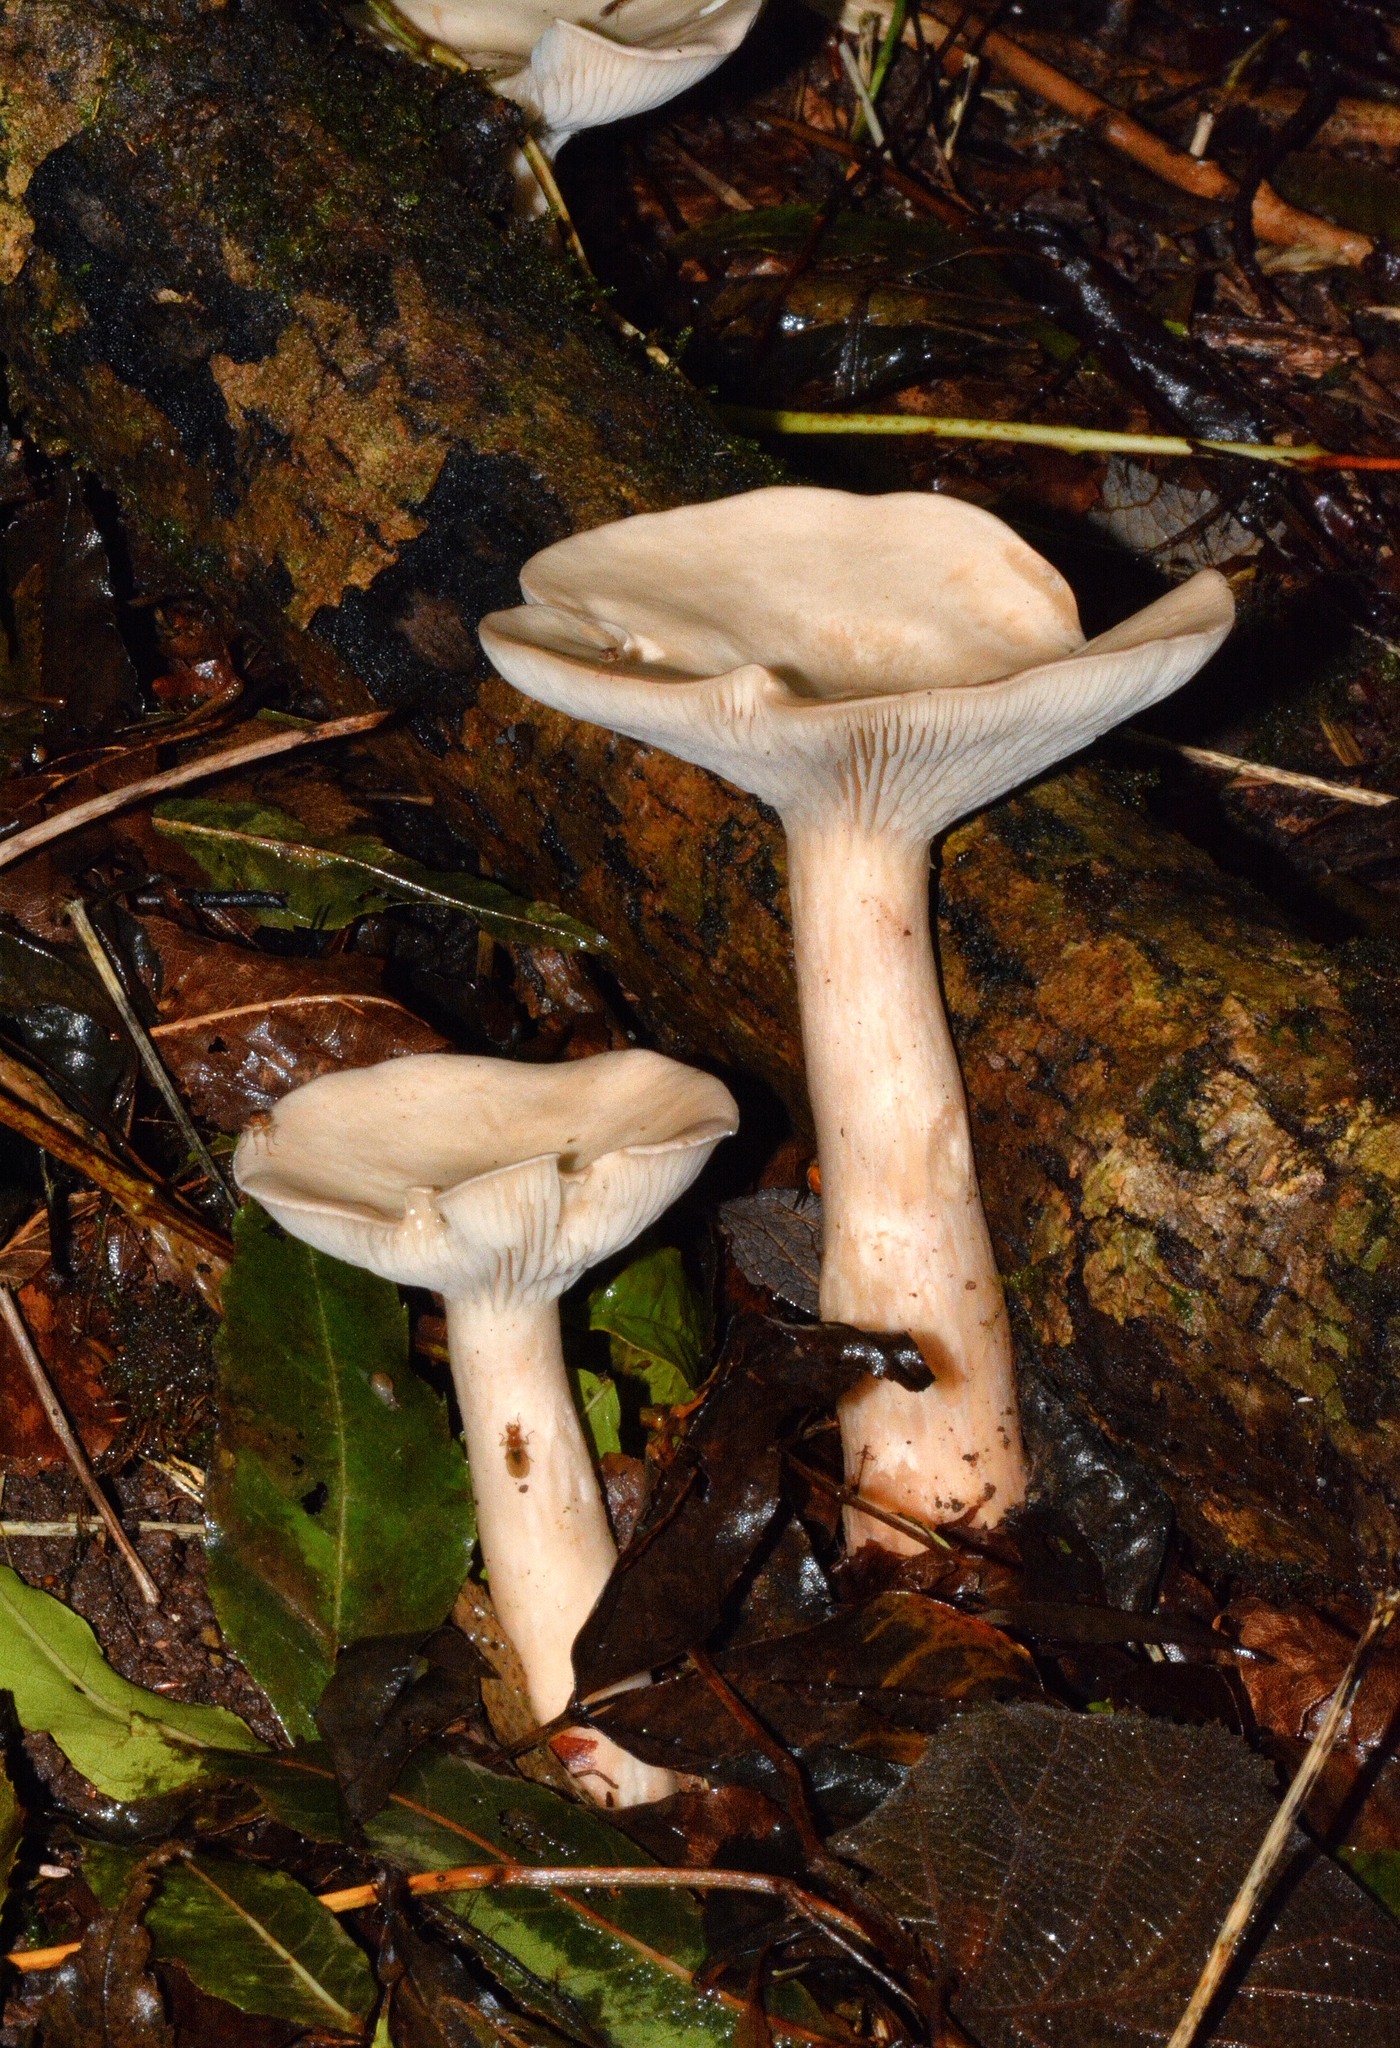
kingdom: Fungi
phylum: Basidiomycota
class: Agaricomycetes
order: Agaricales
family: Tricholomataceae
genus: Infundibulicybe
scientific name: Infundibulicybe geotropa
